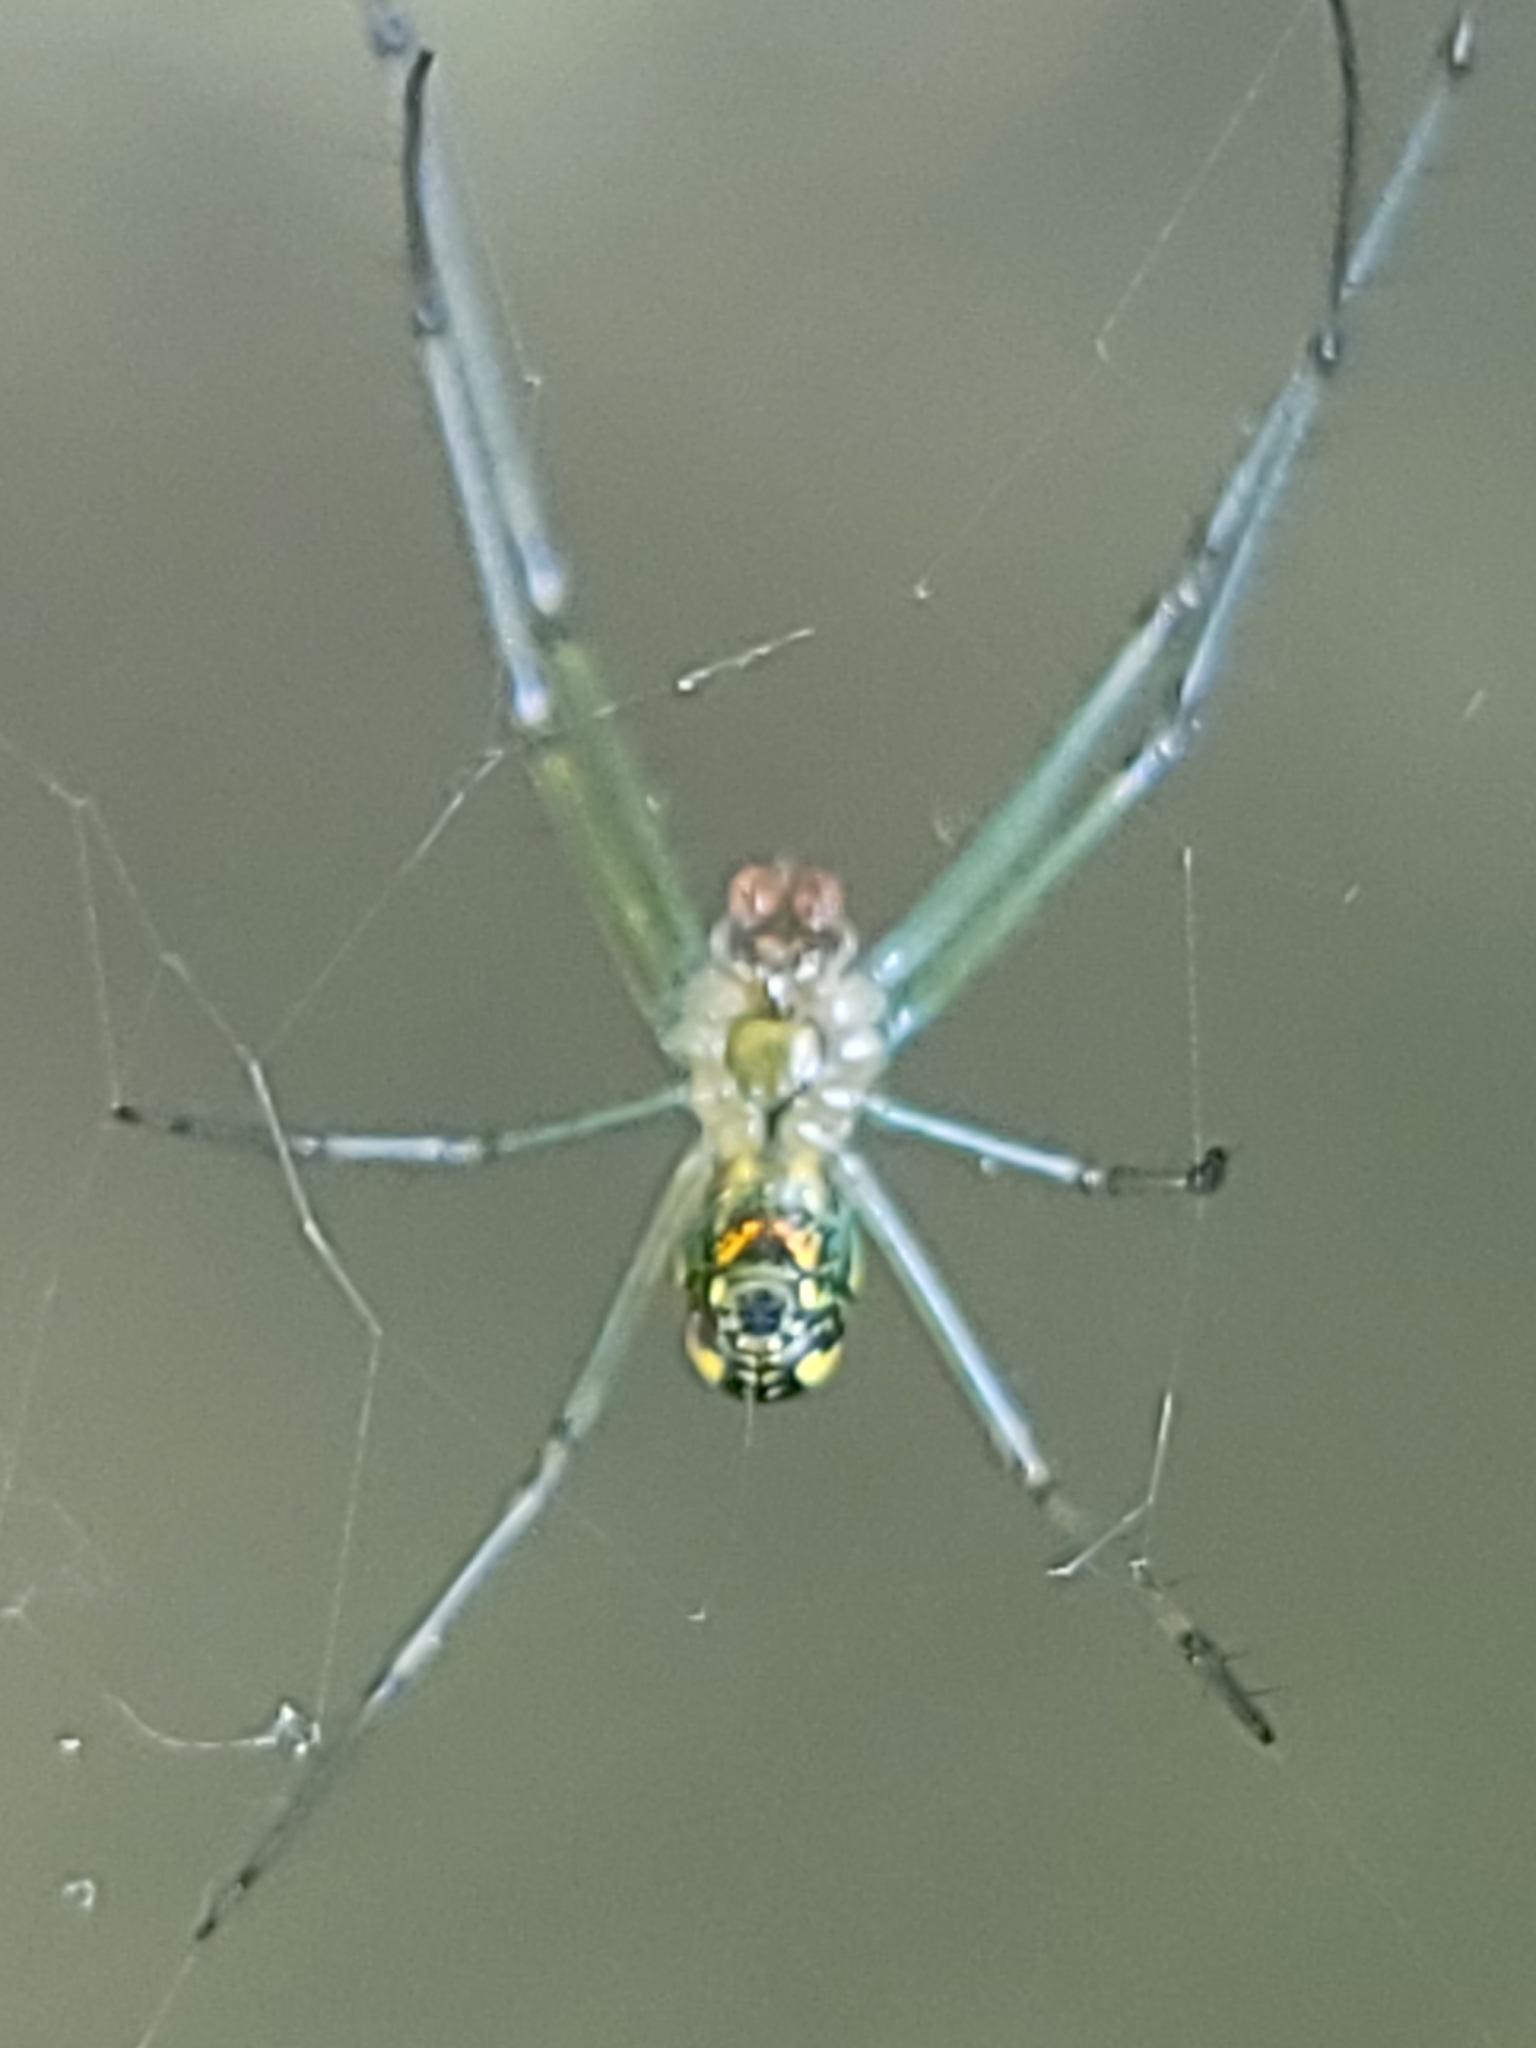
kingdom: Animalia
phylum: Arthropoda
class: Arachnida
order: Araneae
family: Tetragnathidae
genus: Leucauge
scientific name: Leucauge venusta
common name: Longjawed orb weavers
